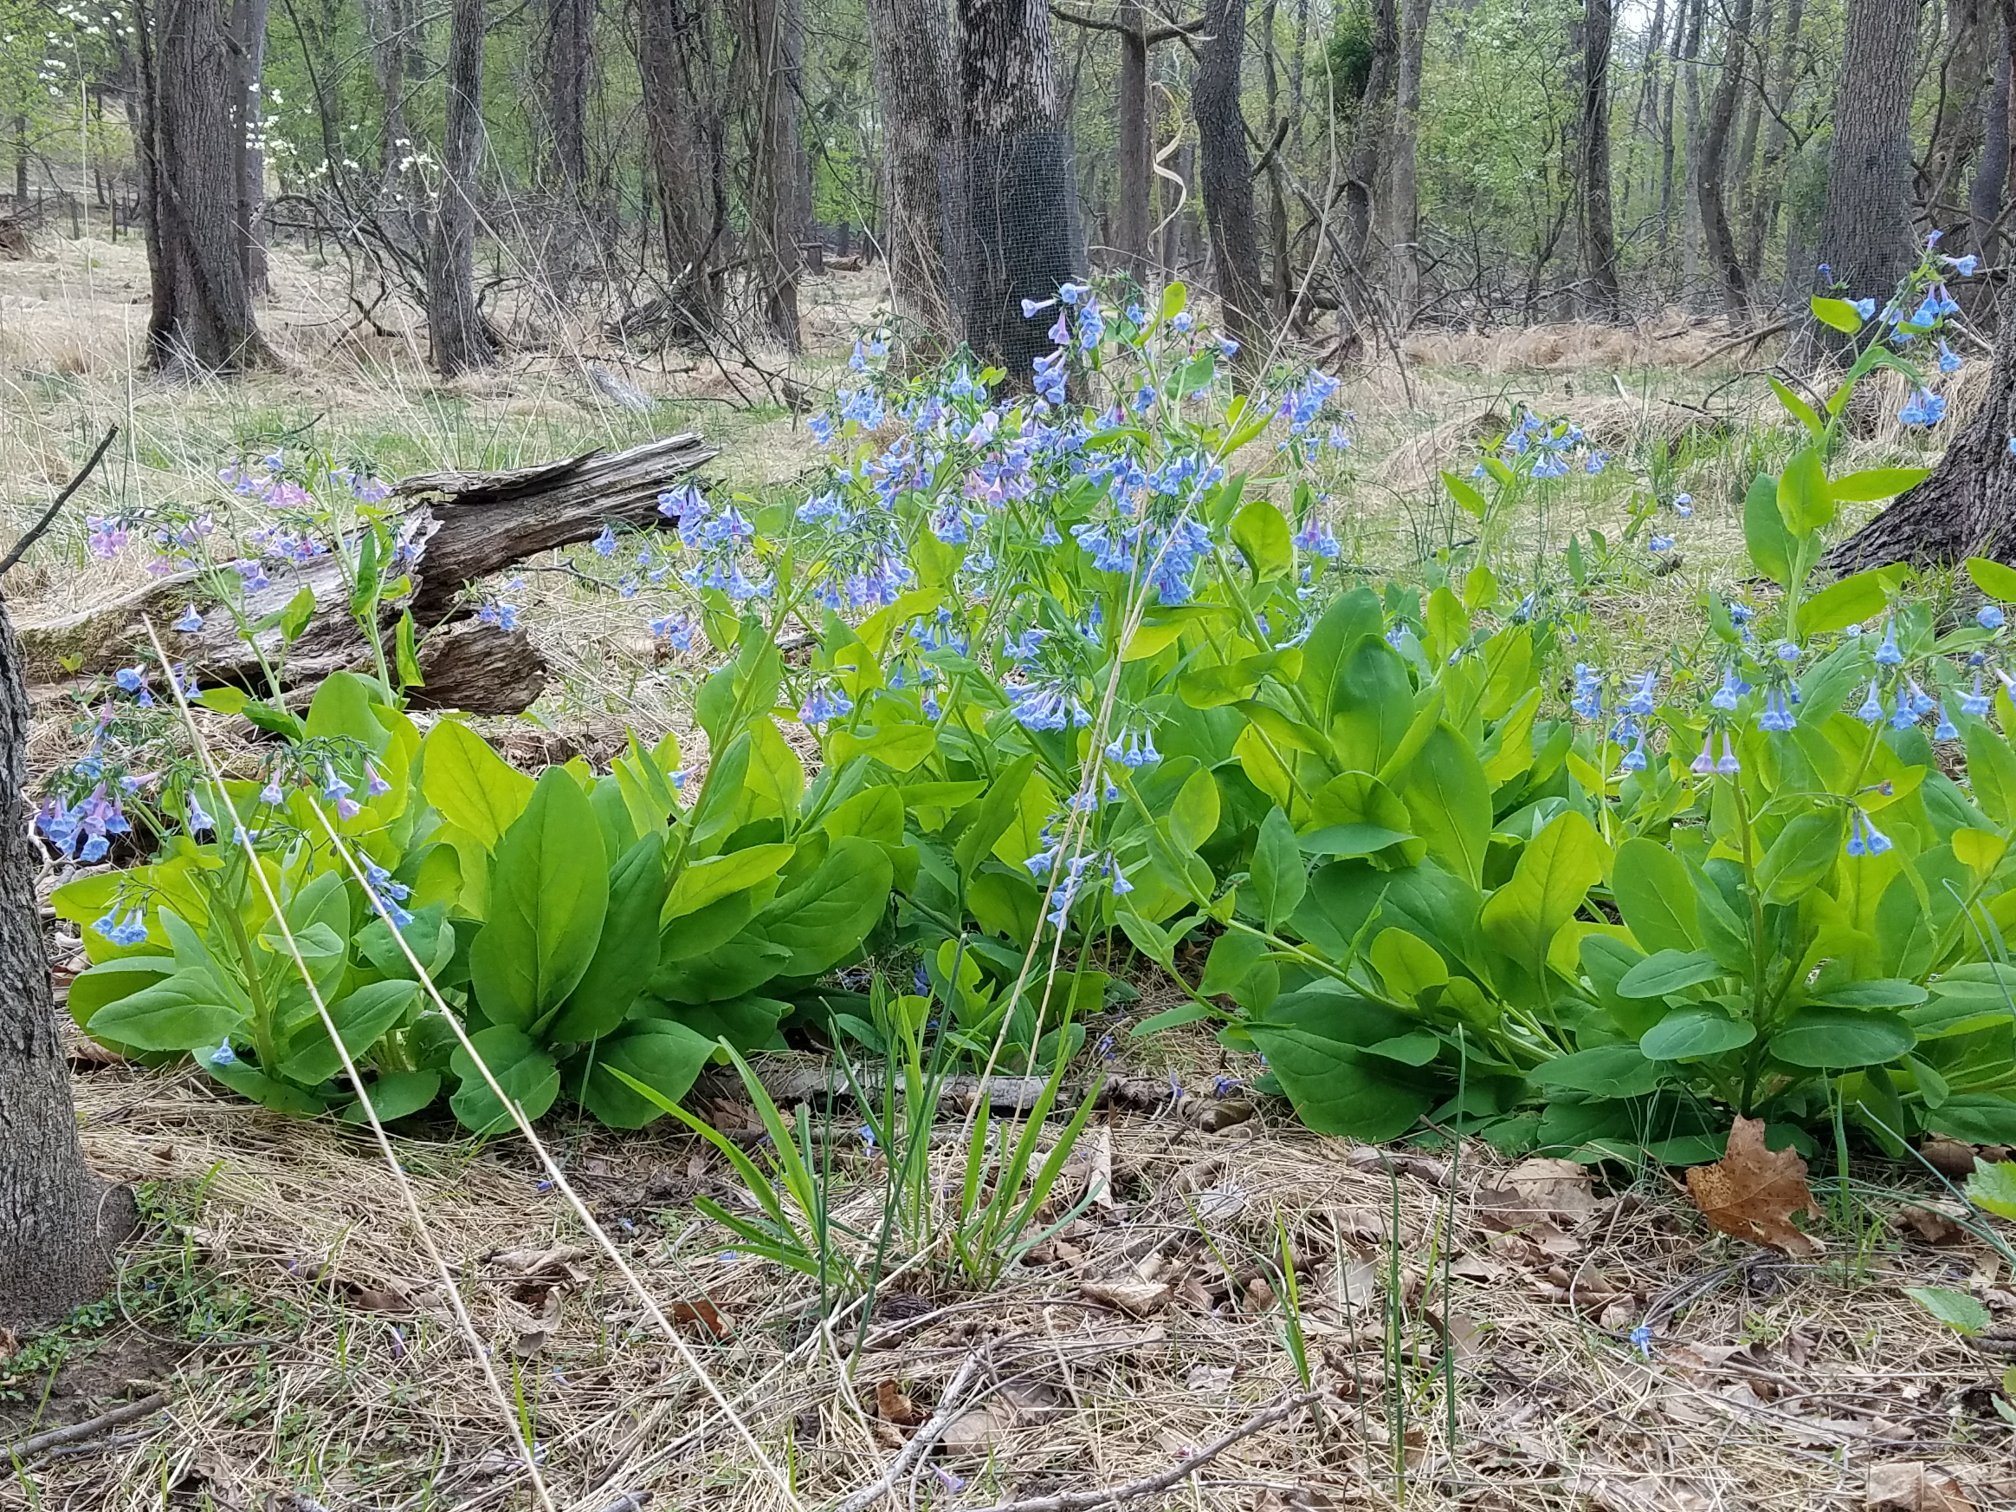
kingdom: Plantae
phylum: Tracheophyta
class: Magnoliopsida
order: Boraginales
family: Boraginaceae
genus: Mertensia
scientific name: Mertensia virginica
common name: Virginia bluebells
